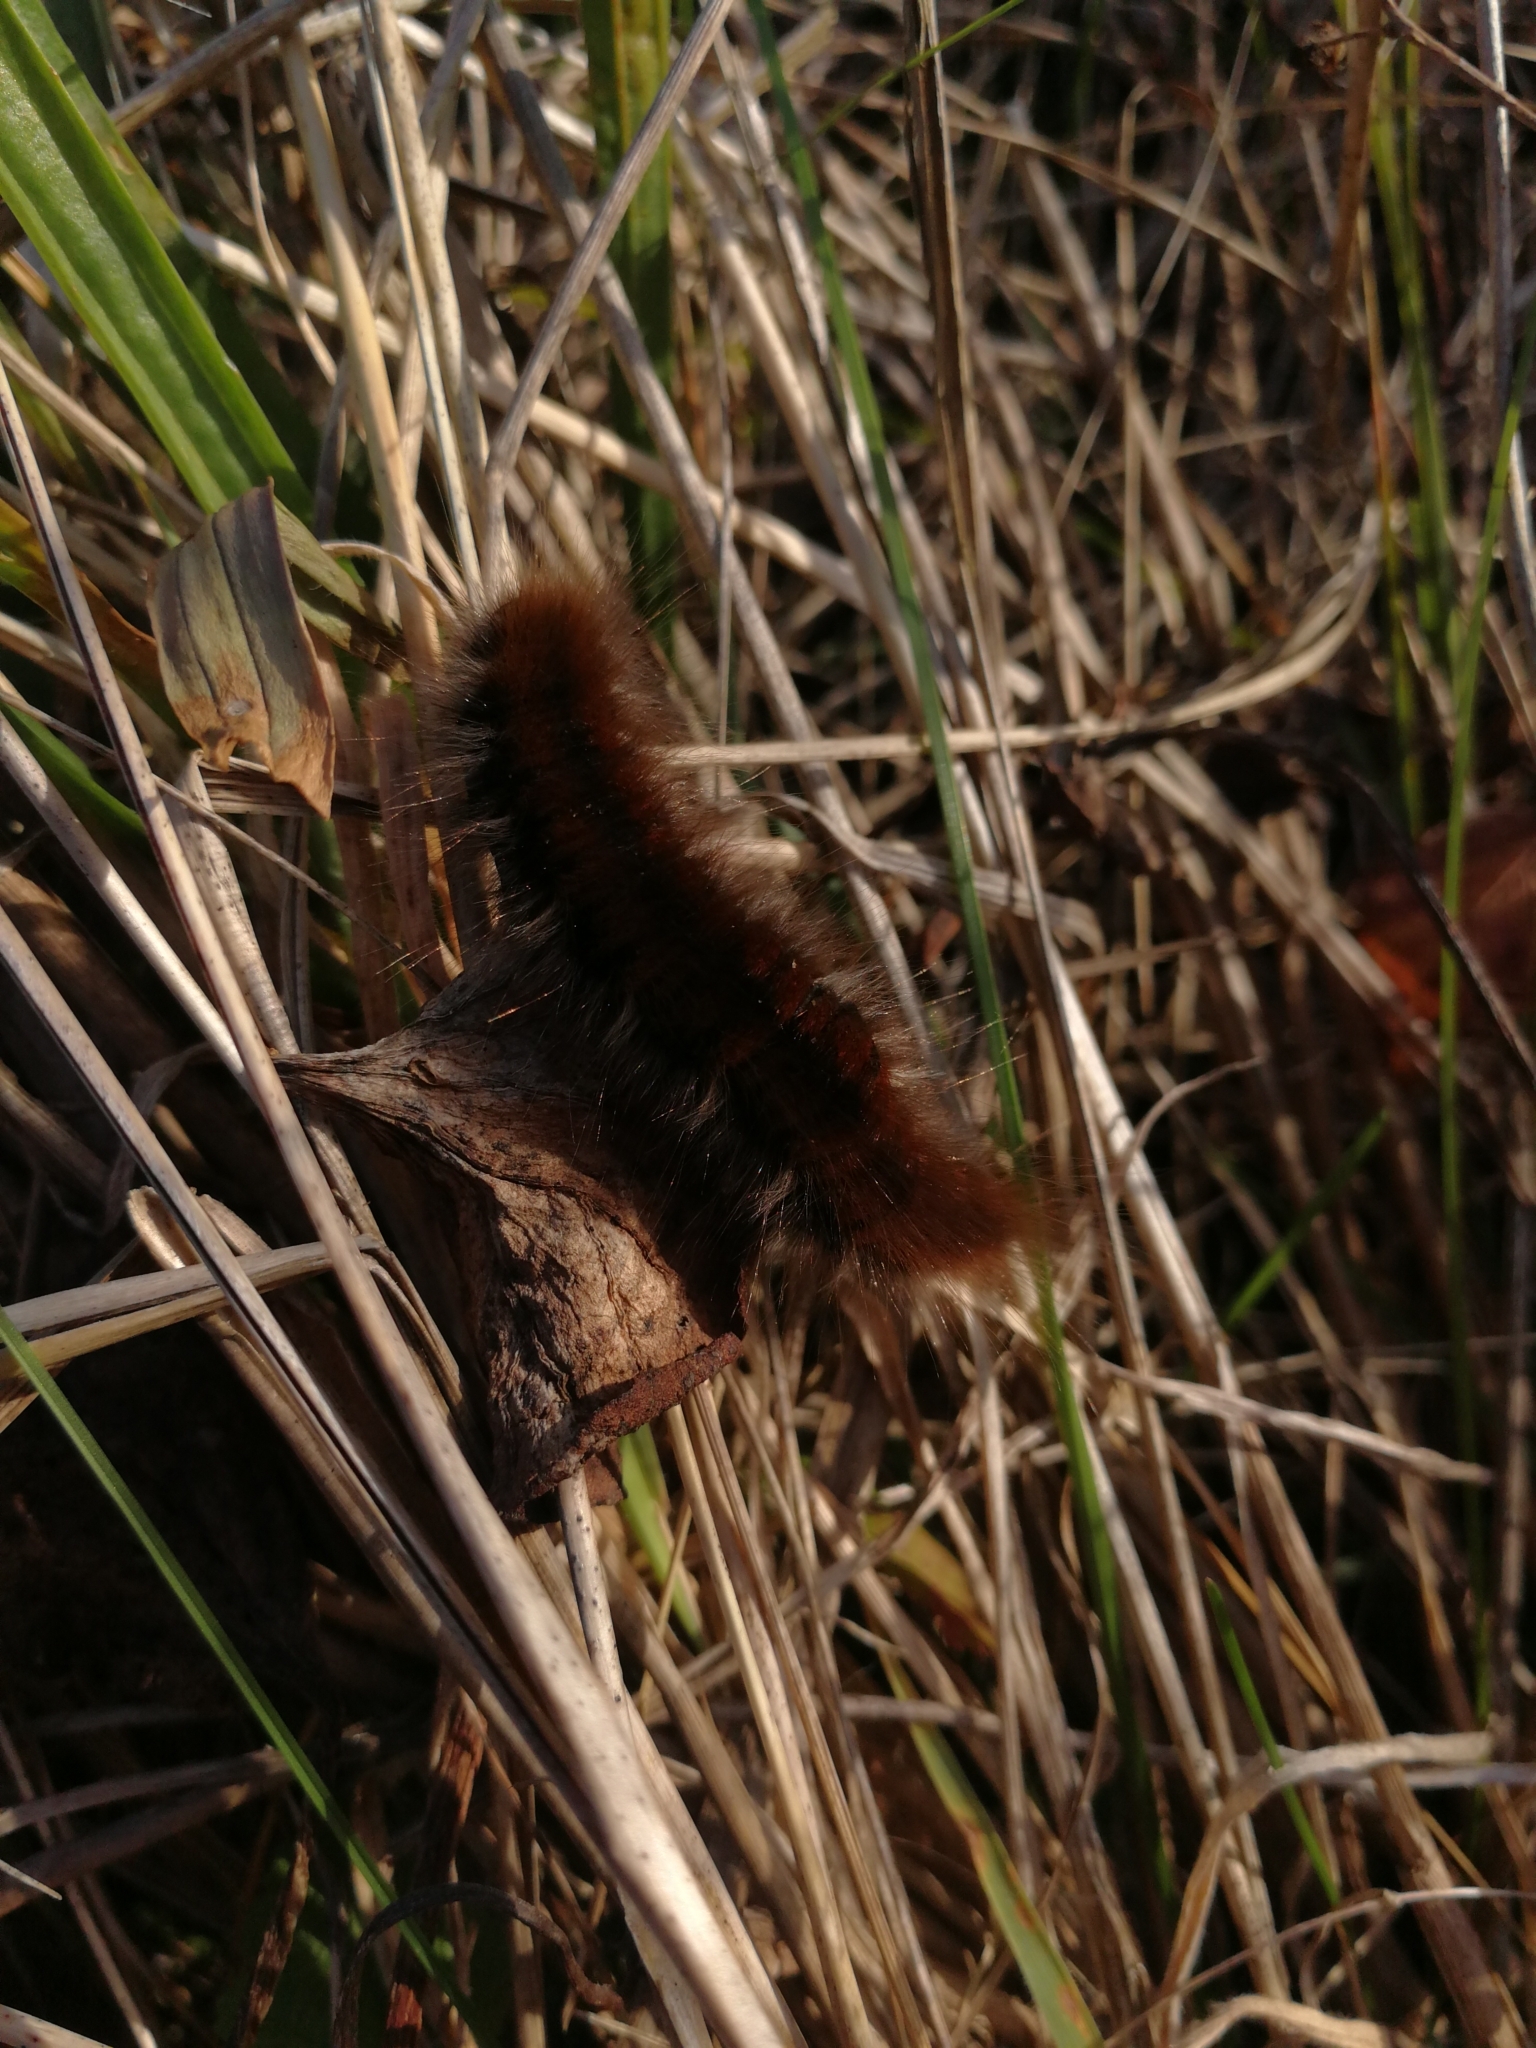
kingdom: Animalia
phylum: Arthropoda
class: Insecta
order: Lepidoptera
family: Lasiocampidae
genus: Macrothylacia
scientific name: Macrothylacia rubi
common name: Fox moth
